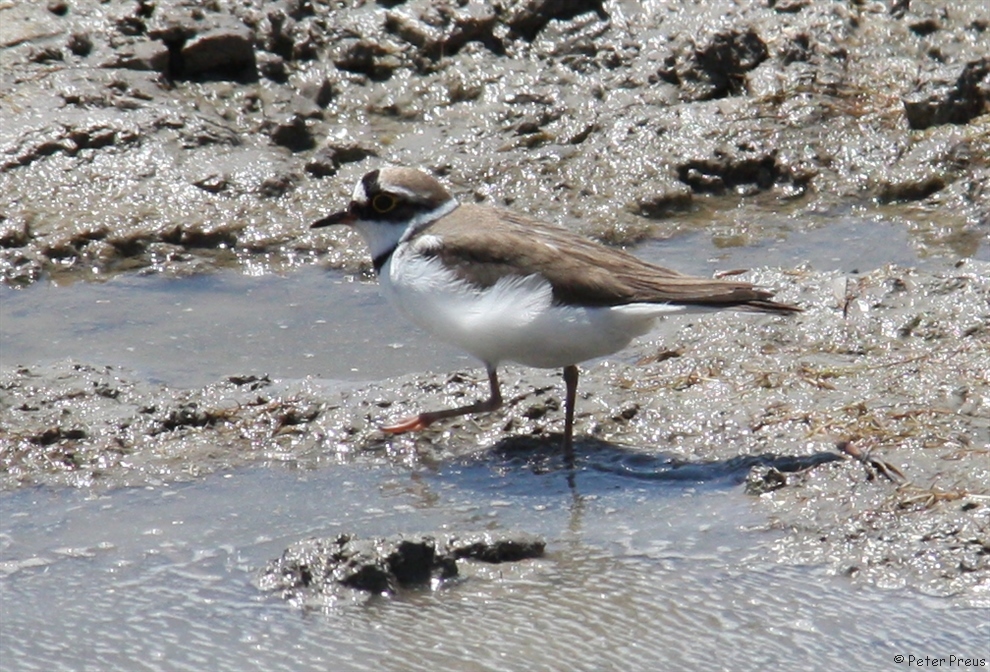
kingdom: Animalia
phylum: Chordata
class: Aves
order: Charadriiformes
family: Charadriidae
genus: Charadrius
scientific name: Charadrius dubius
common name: Little ringed plover
